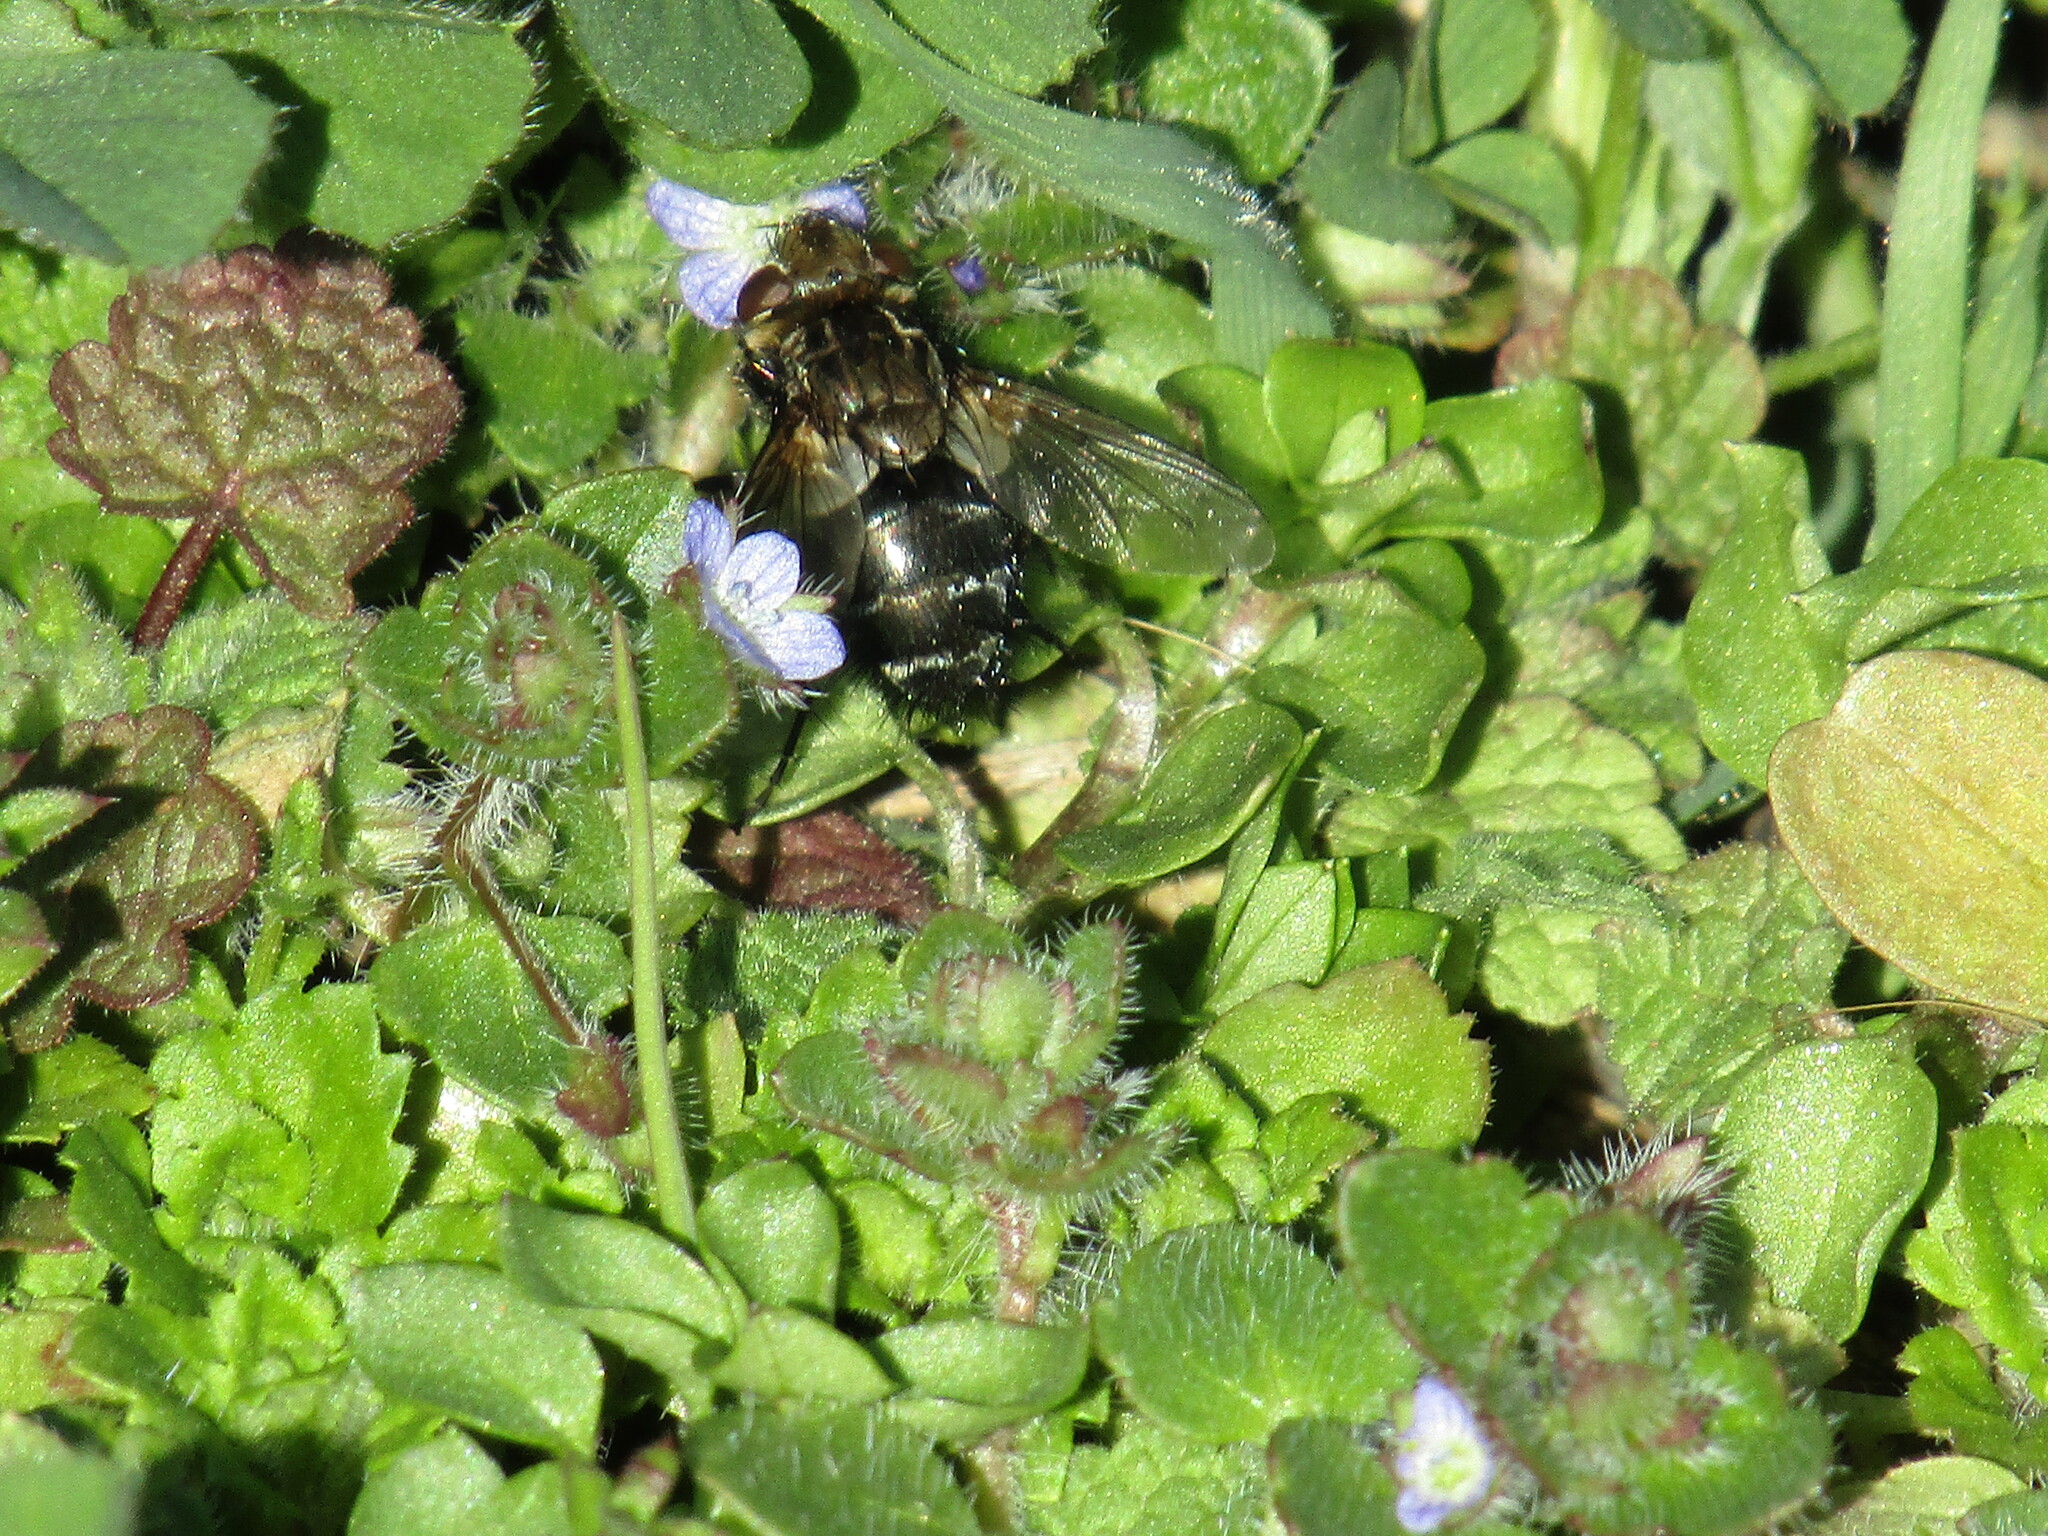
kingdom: Animalia
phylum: Arthropoda
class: Insecta
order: Diptera
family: Tachinidae
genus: Gonia
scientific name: Gonia picea
